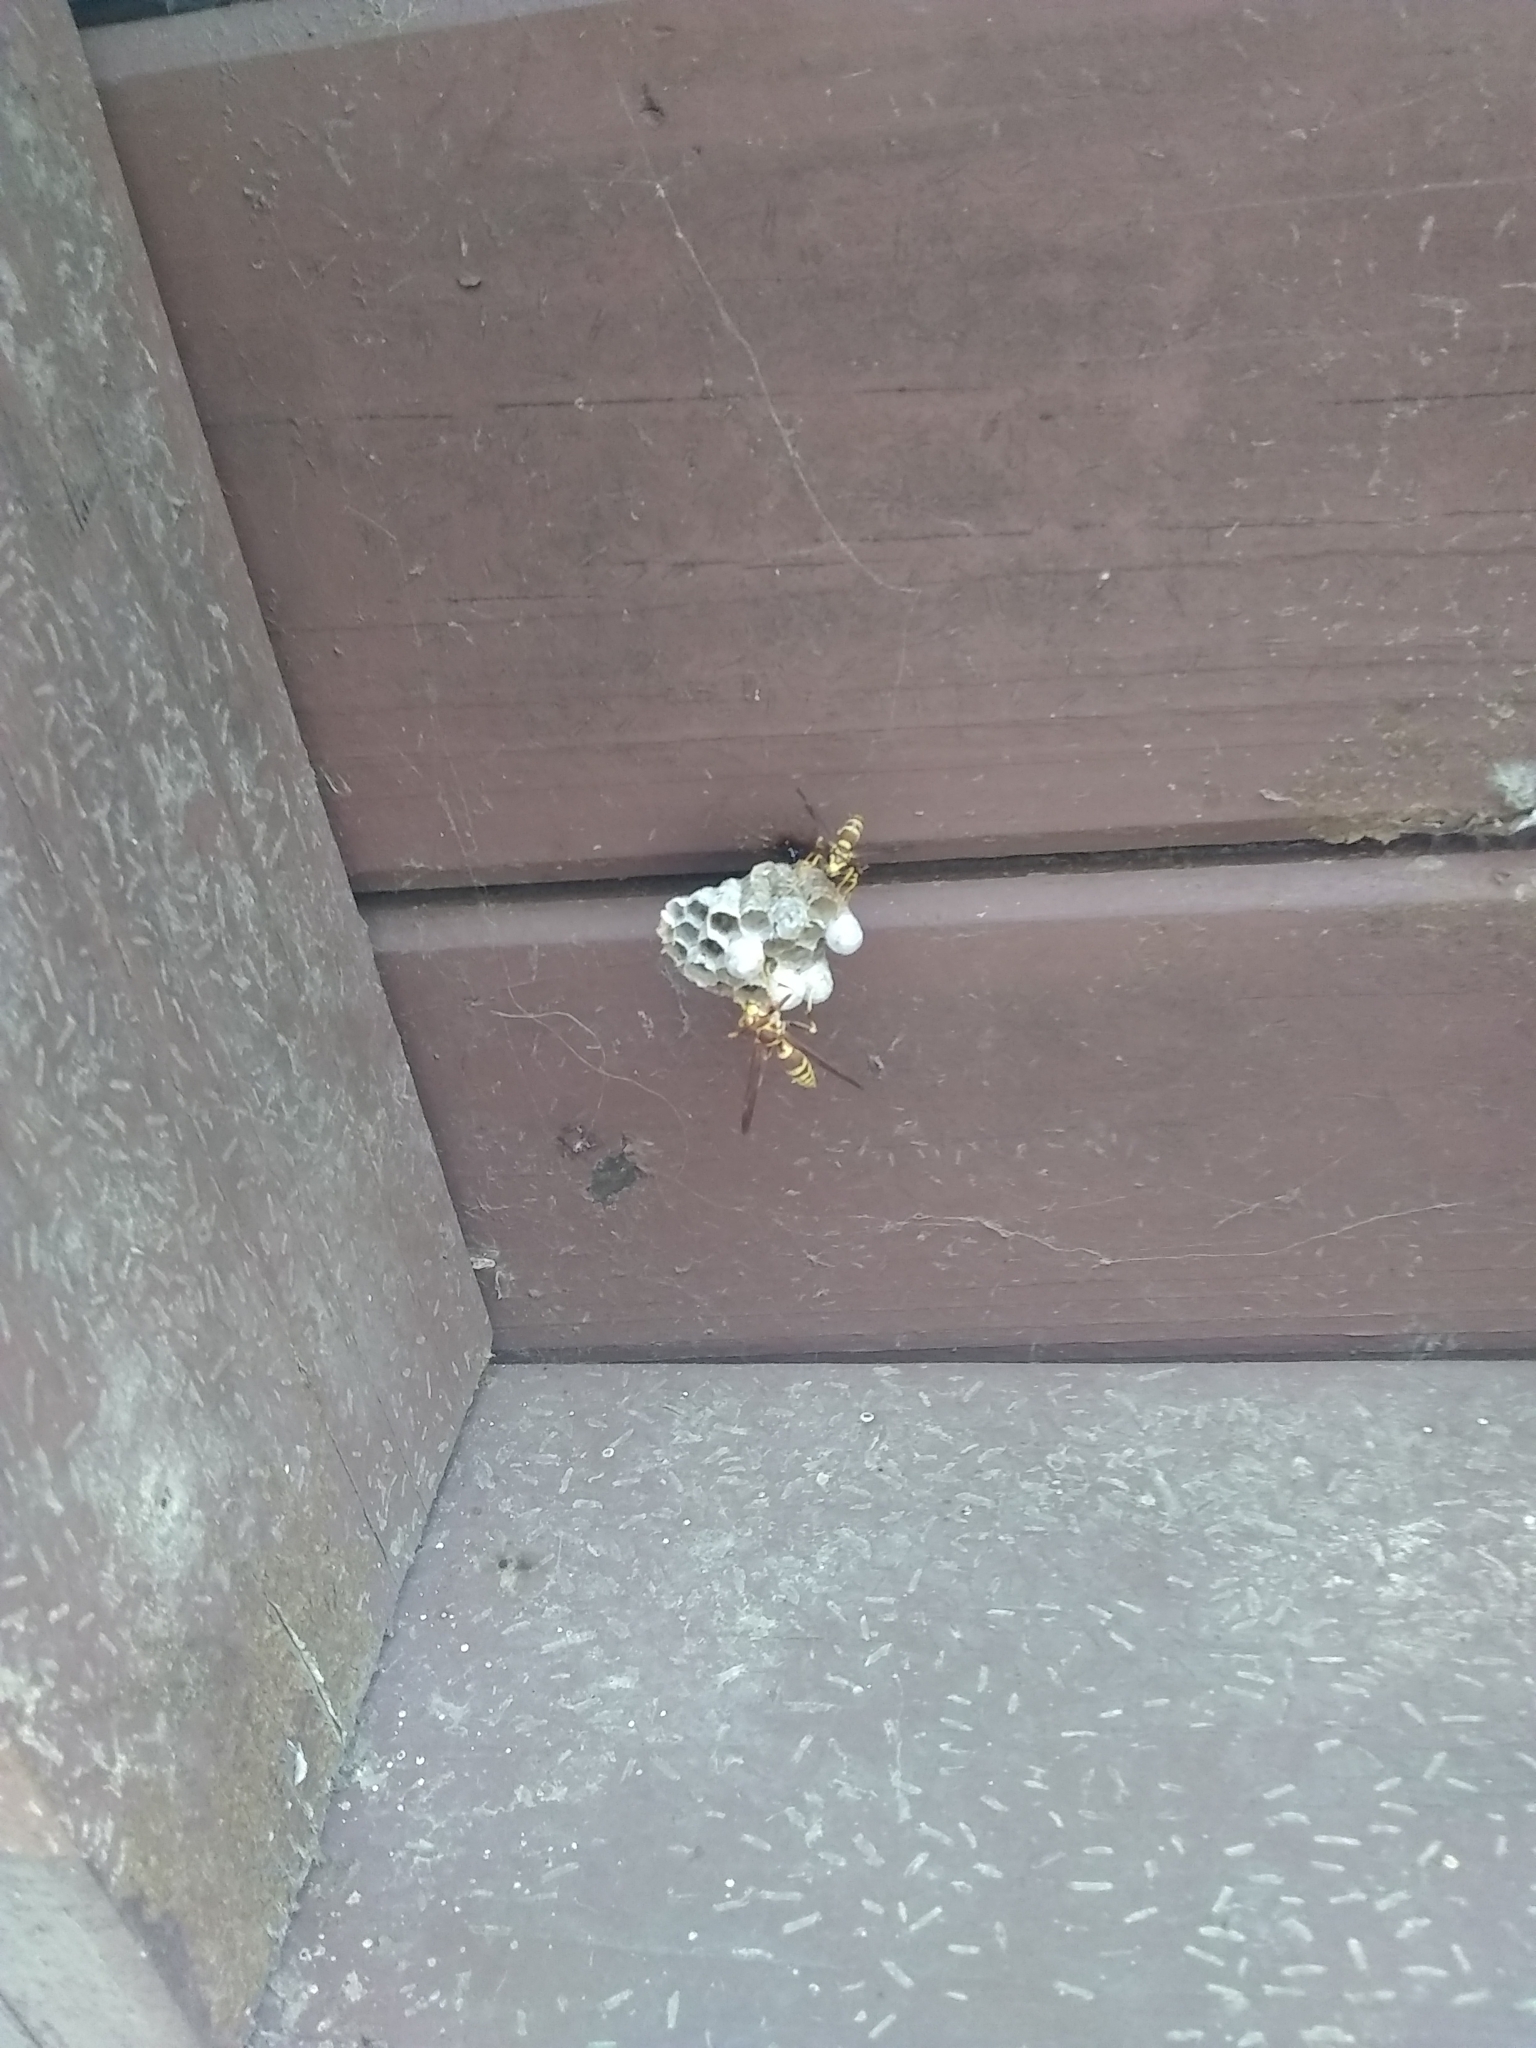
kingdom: Animalia
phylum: Arthropoda
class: Insecta
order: Hymenoptera
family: Eumenidae
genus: Polistes
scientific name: Polistes exclamans
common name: Paper wasp
